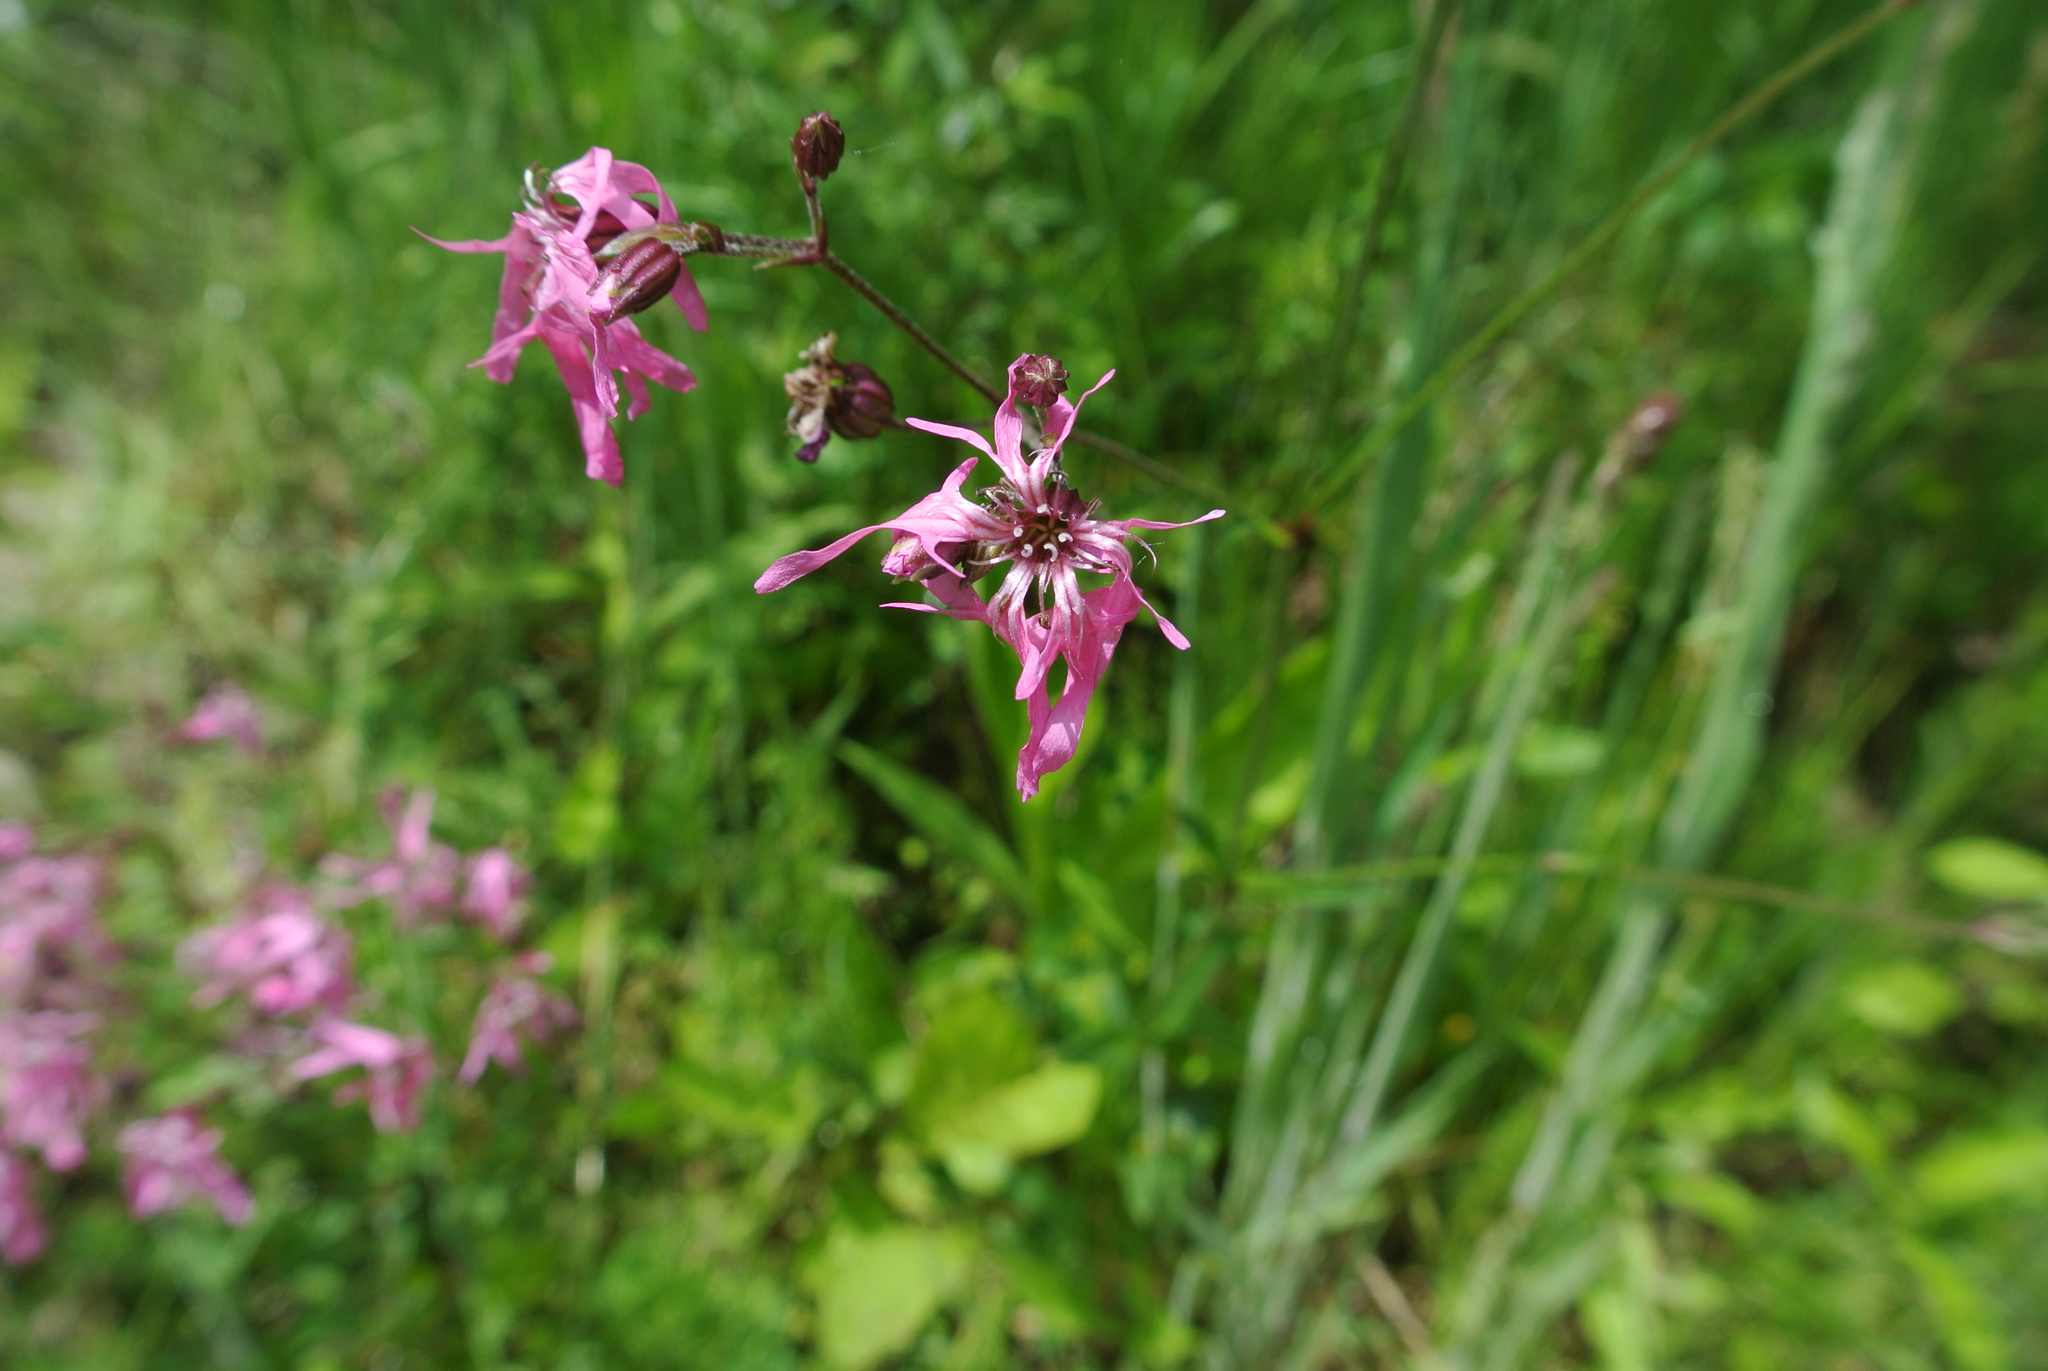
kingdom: Plantae
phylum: Tracheophyta
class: Magnoliopsida
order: Caryophyllales
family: Caryophyllaceae
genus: Silene
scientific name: Silene flos-cuculi
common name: Ragged-robin
